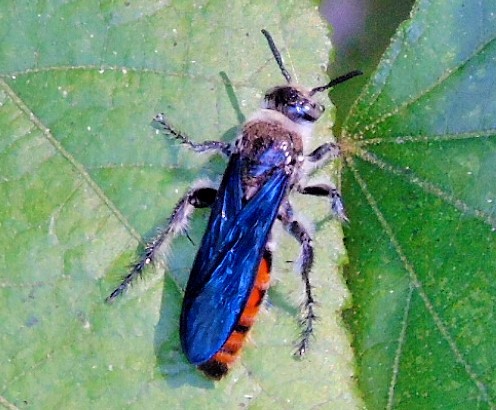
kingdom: Animalia
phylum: Arthropoda
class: Insecta
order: Hymenoptera
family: Scoliidae
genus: Dielis
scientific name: Dielis tolteca
